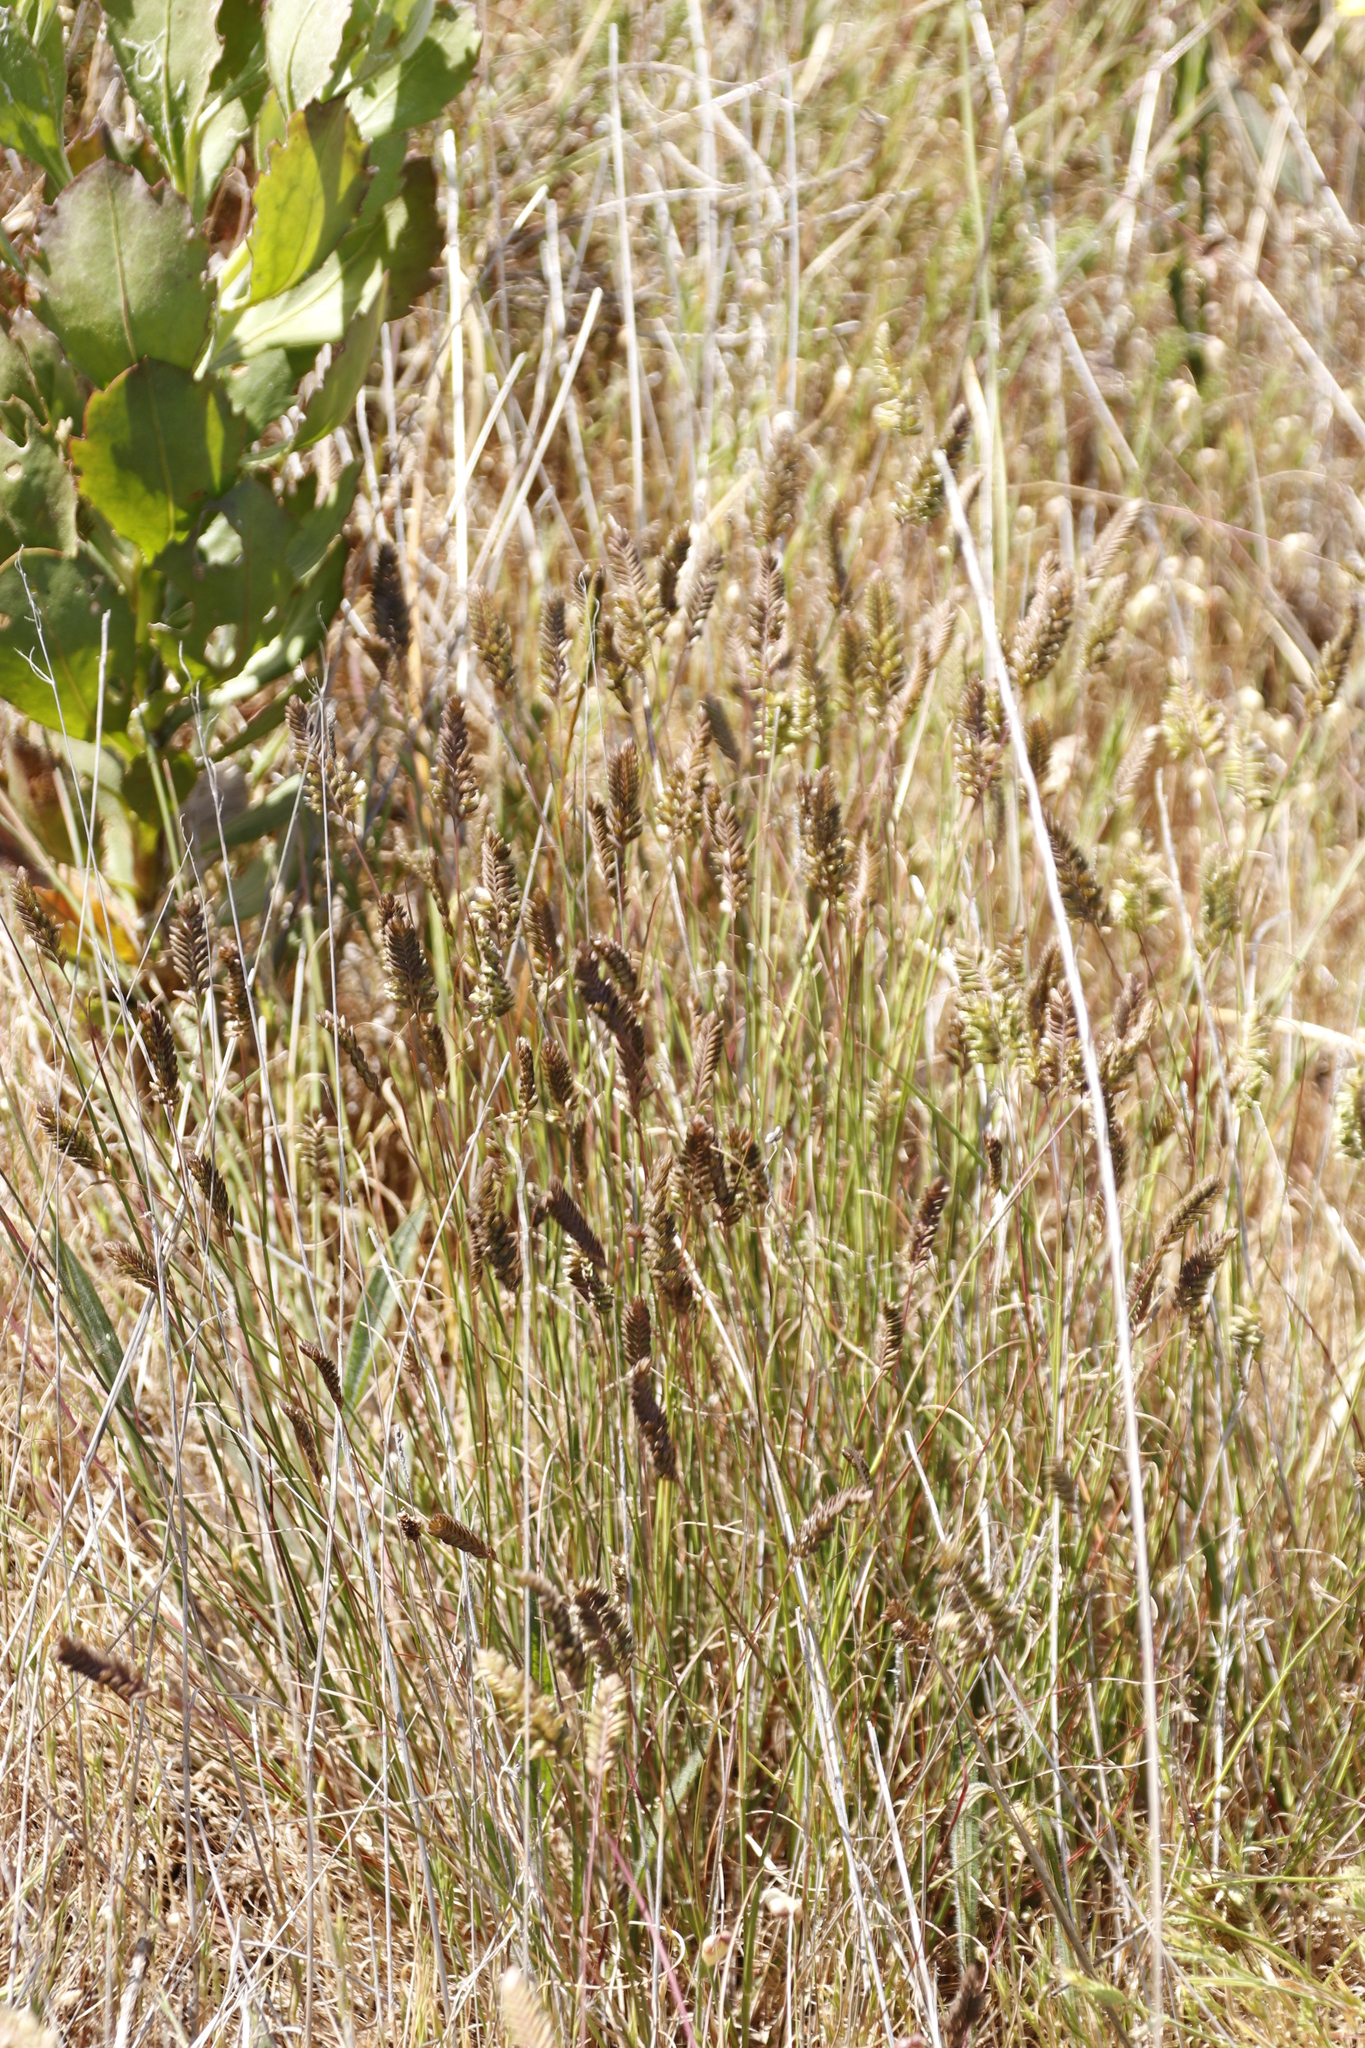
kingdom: Plantae
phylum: Tracheophyta
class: Liliopsida
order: Poales
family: Poaceae
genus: Tribolium
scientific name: Tribolium uniolae
